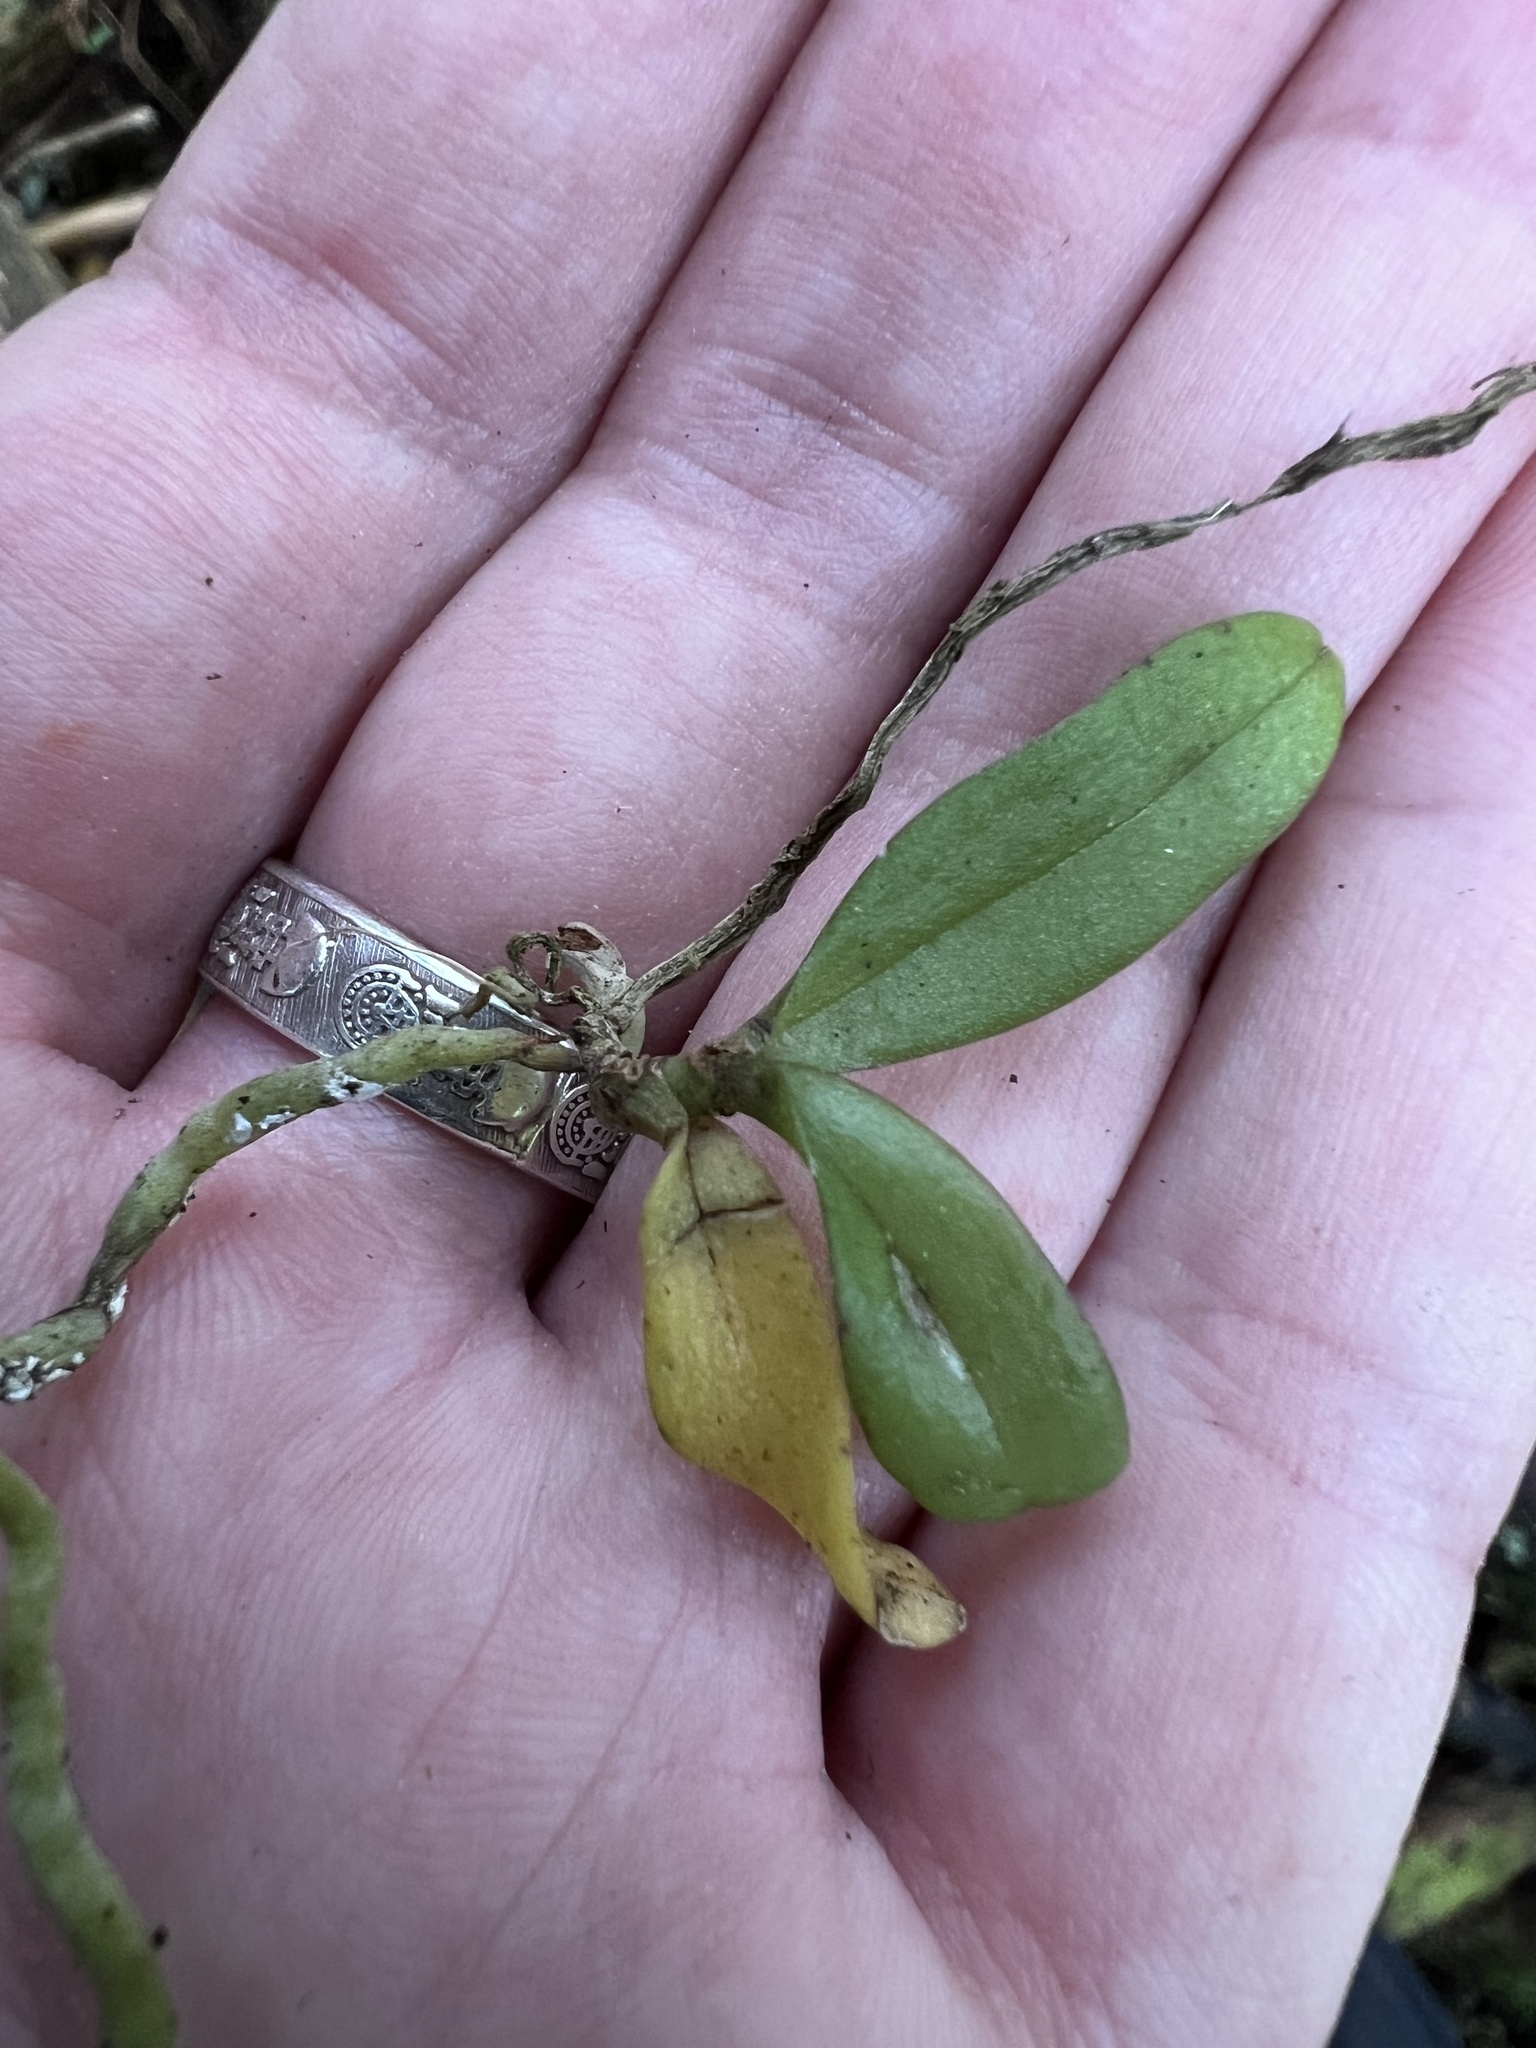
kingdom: Plantae
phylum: Tracheophyta
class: Liliopsida
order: Asparagales
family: Orchidaceae
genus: Drymoanthus
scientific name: Drymoanthus adversus
